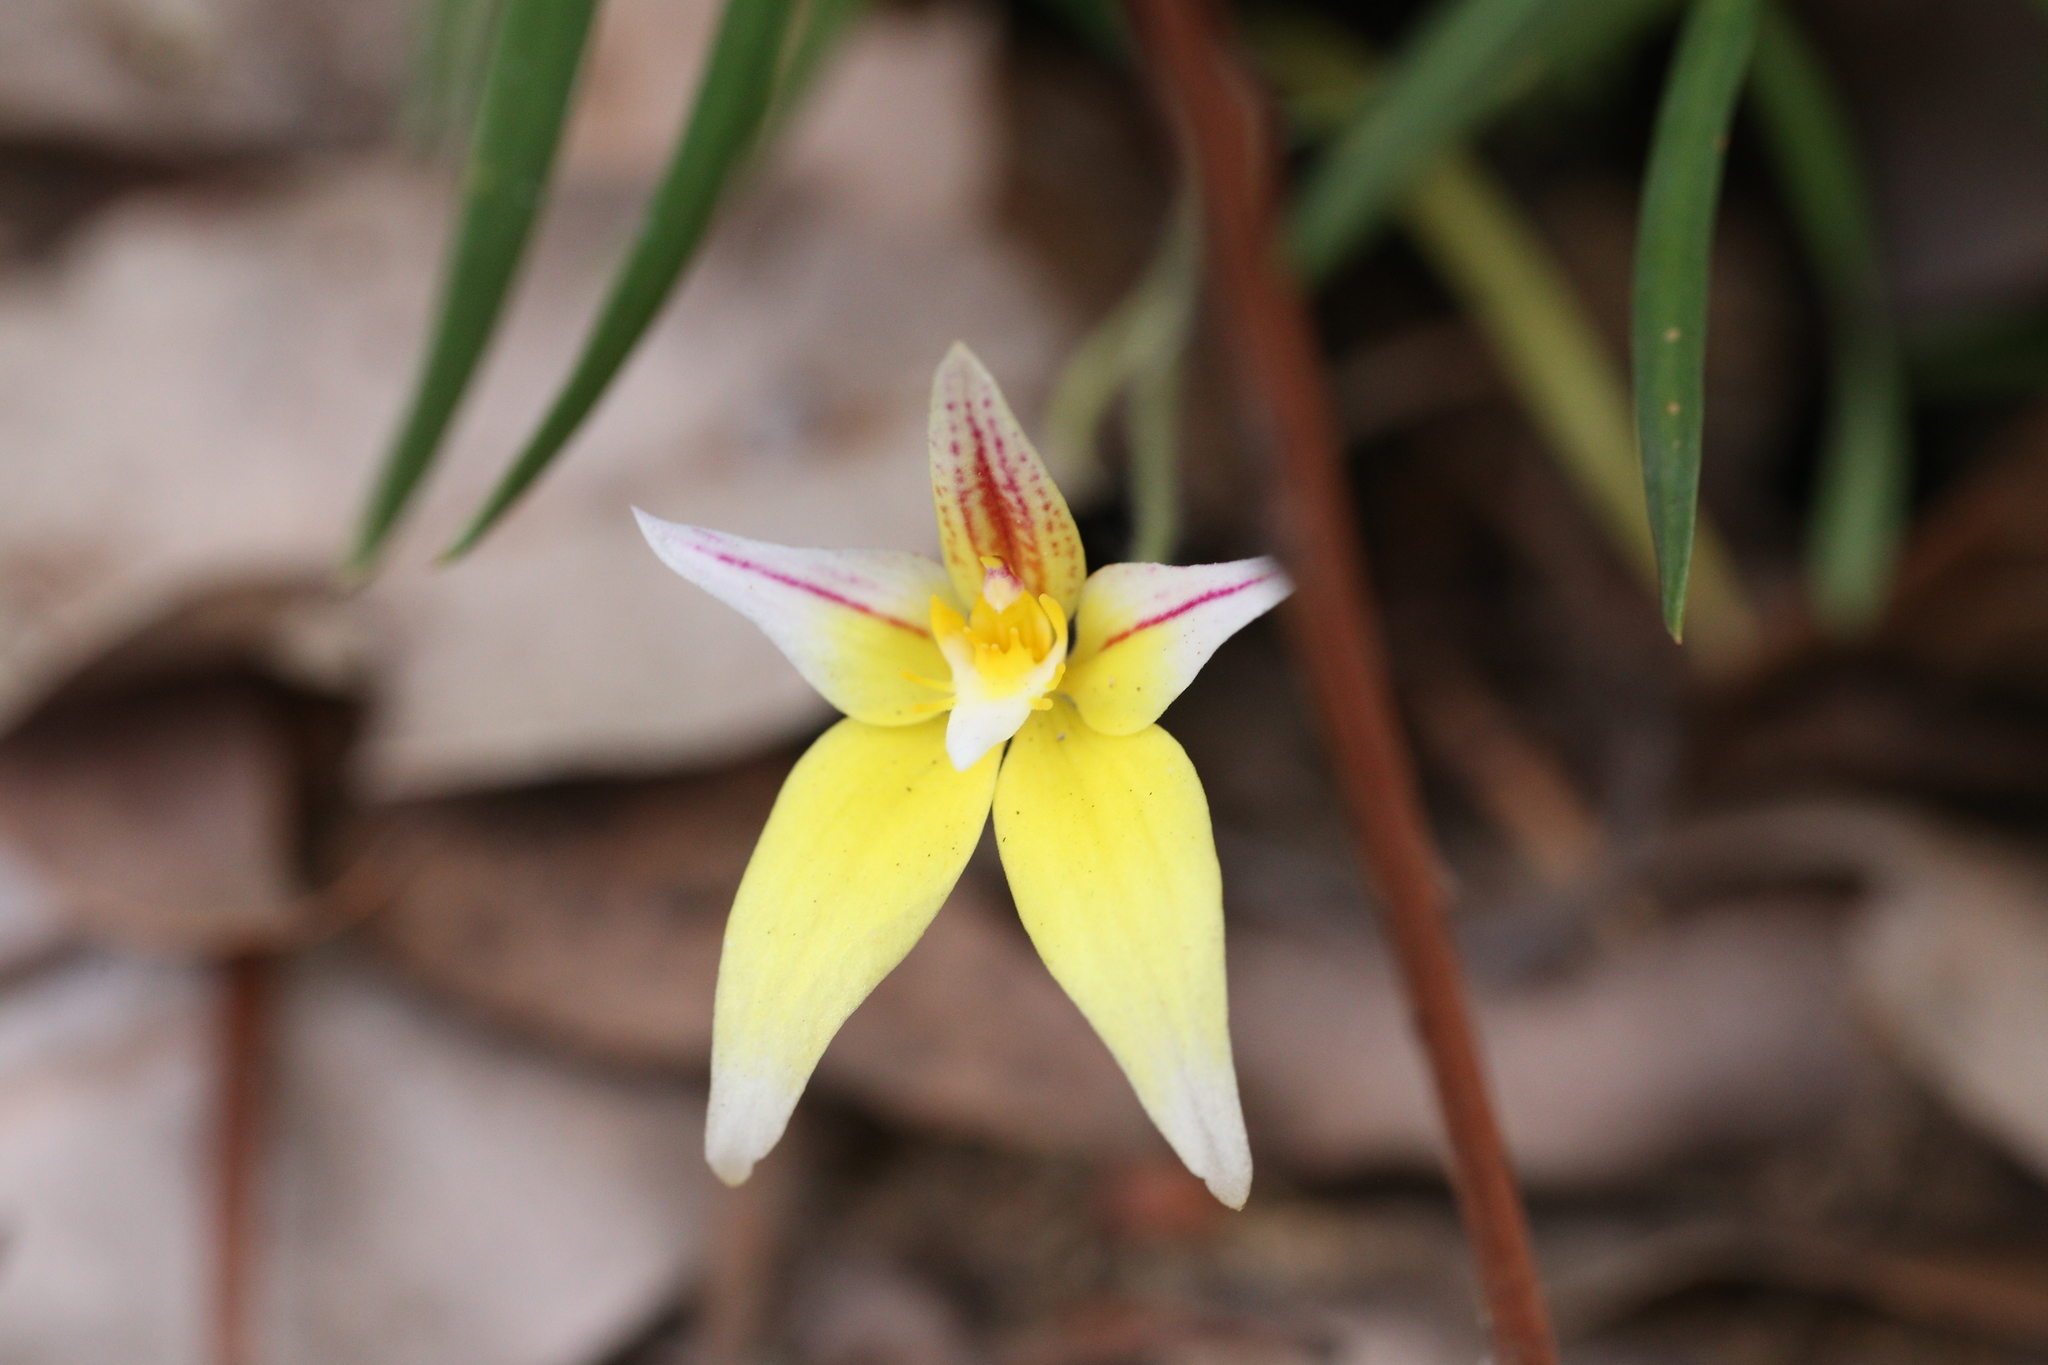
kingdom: Plantae
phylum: Tracheophyta
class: Liliopsida
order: Asparagales
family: Orchidaceae
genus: Caladenia
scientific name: Caladenia flava
